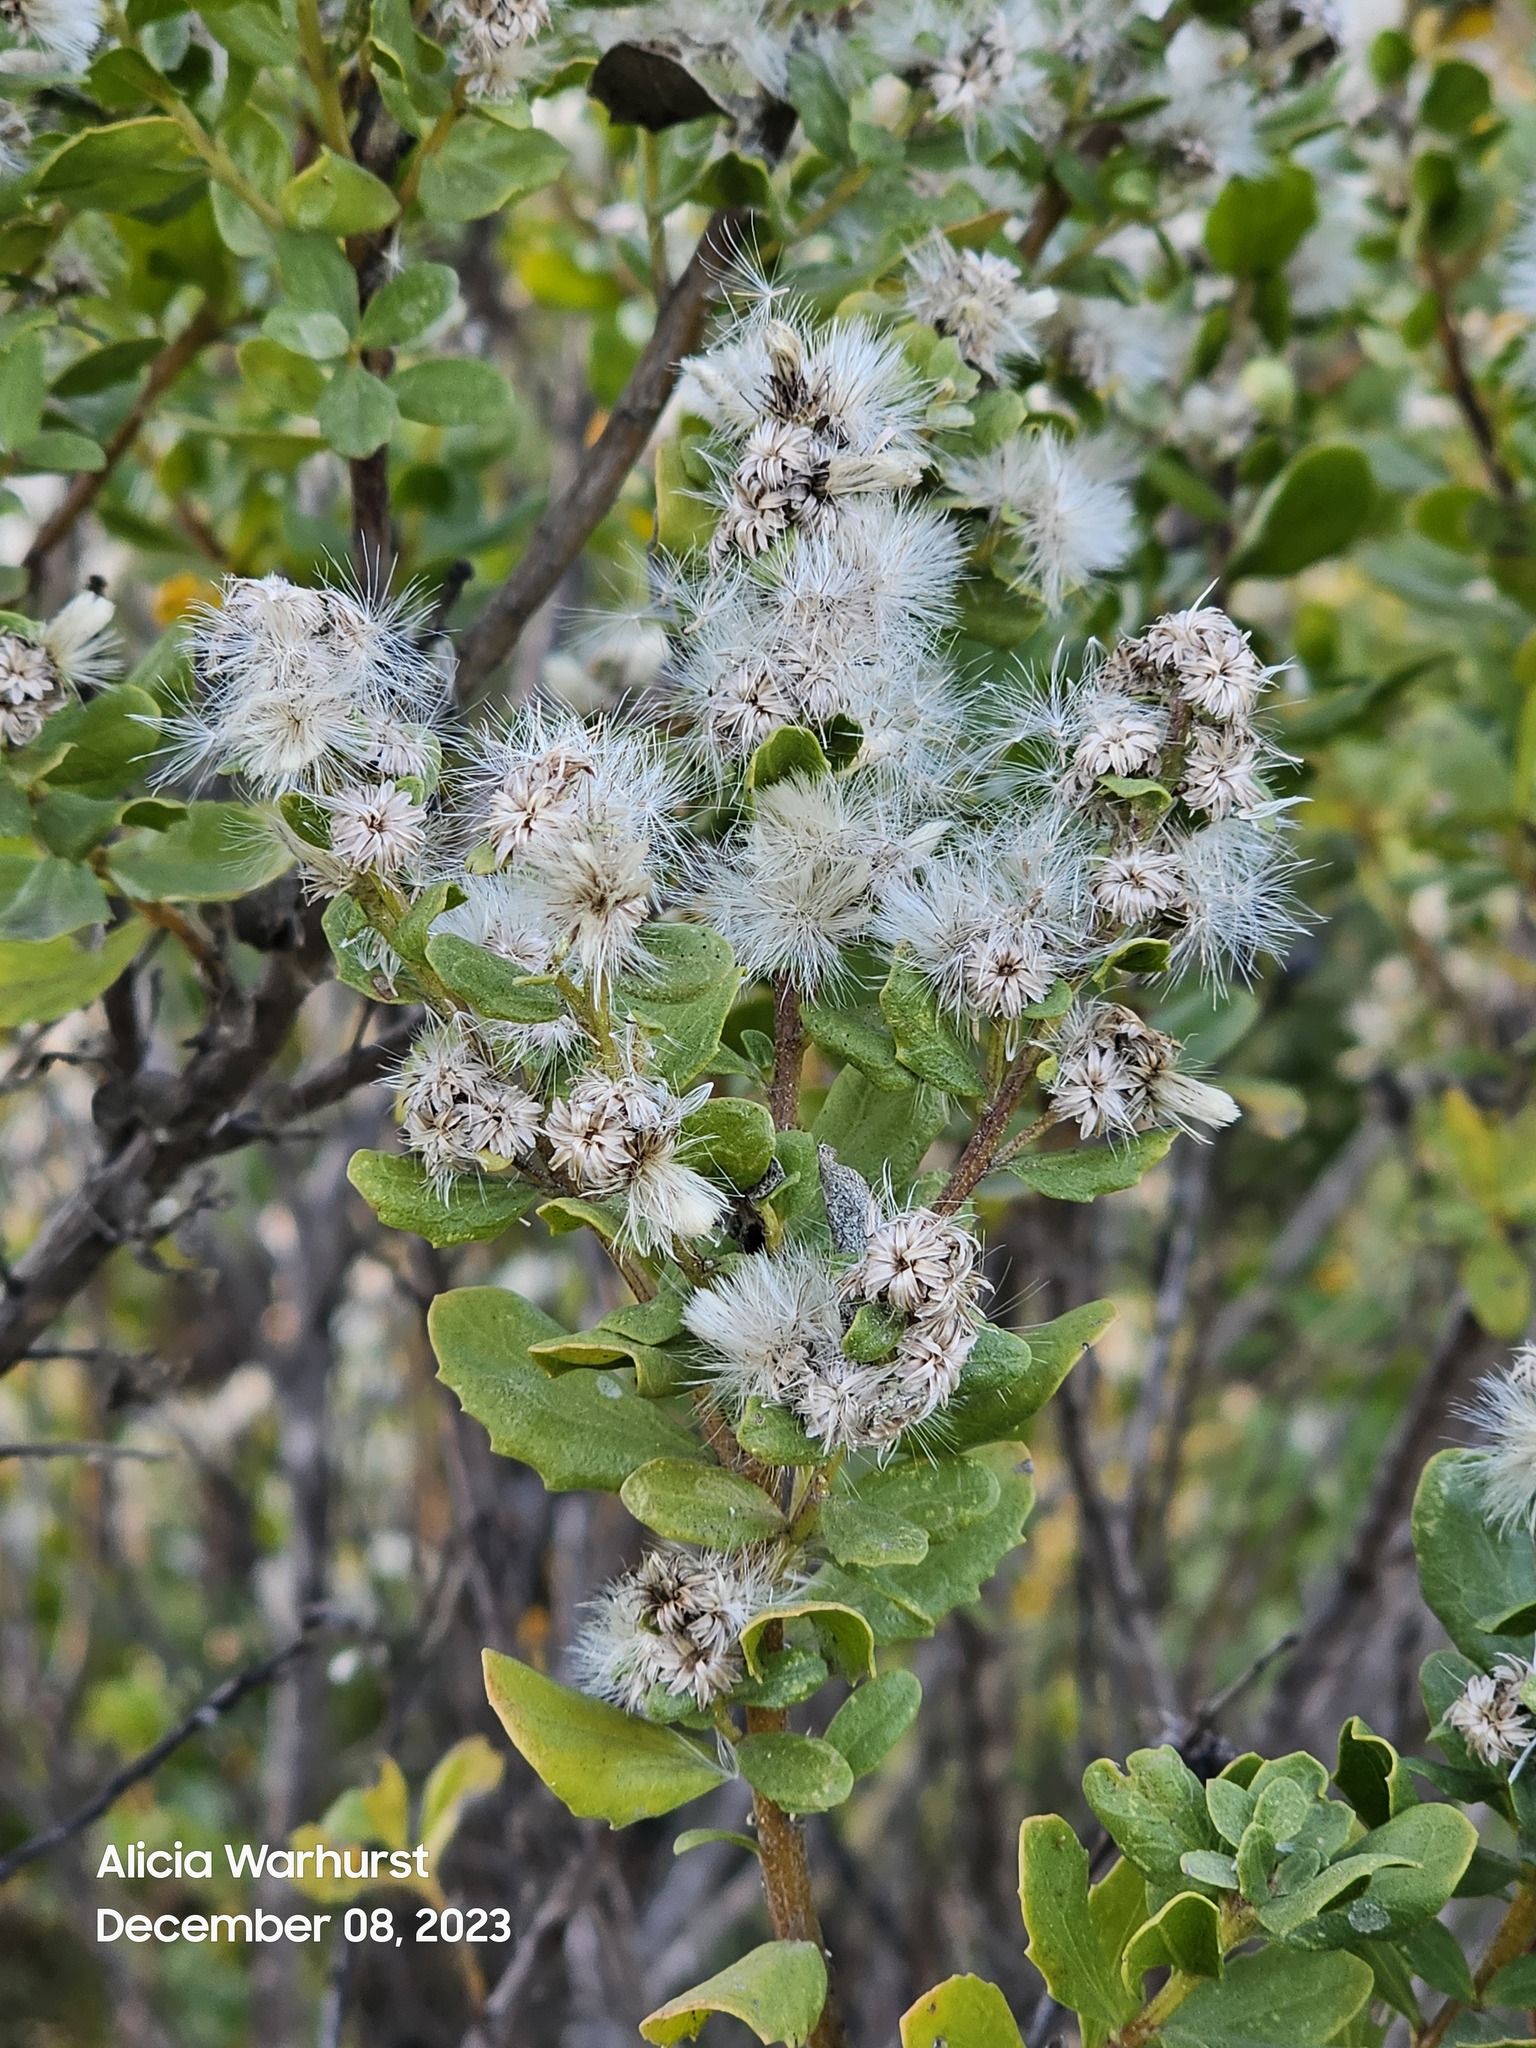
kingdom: Plantae
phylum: Tracheophyta
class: Magnoliopsida
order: Asterales
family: Asteraceae
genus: Baccharis
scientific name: Baccharis pilularis
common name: Coyotebrush
